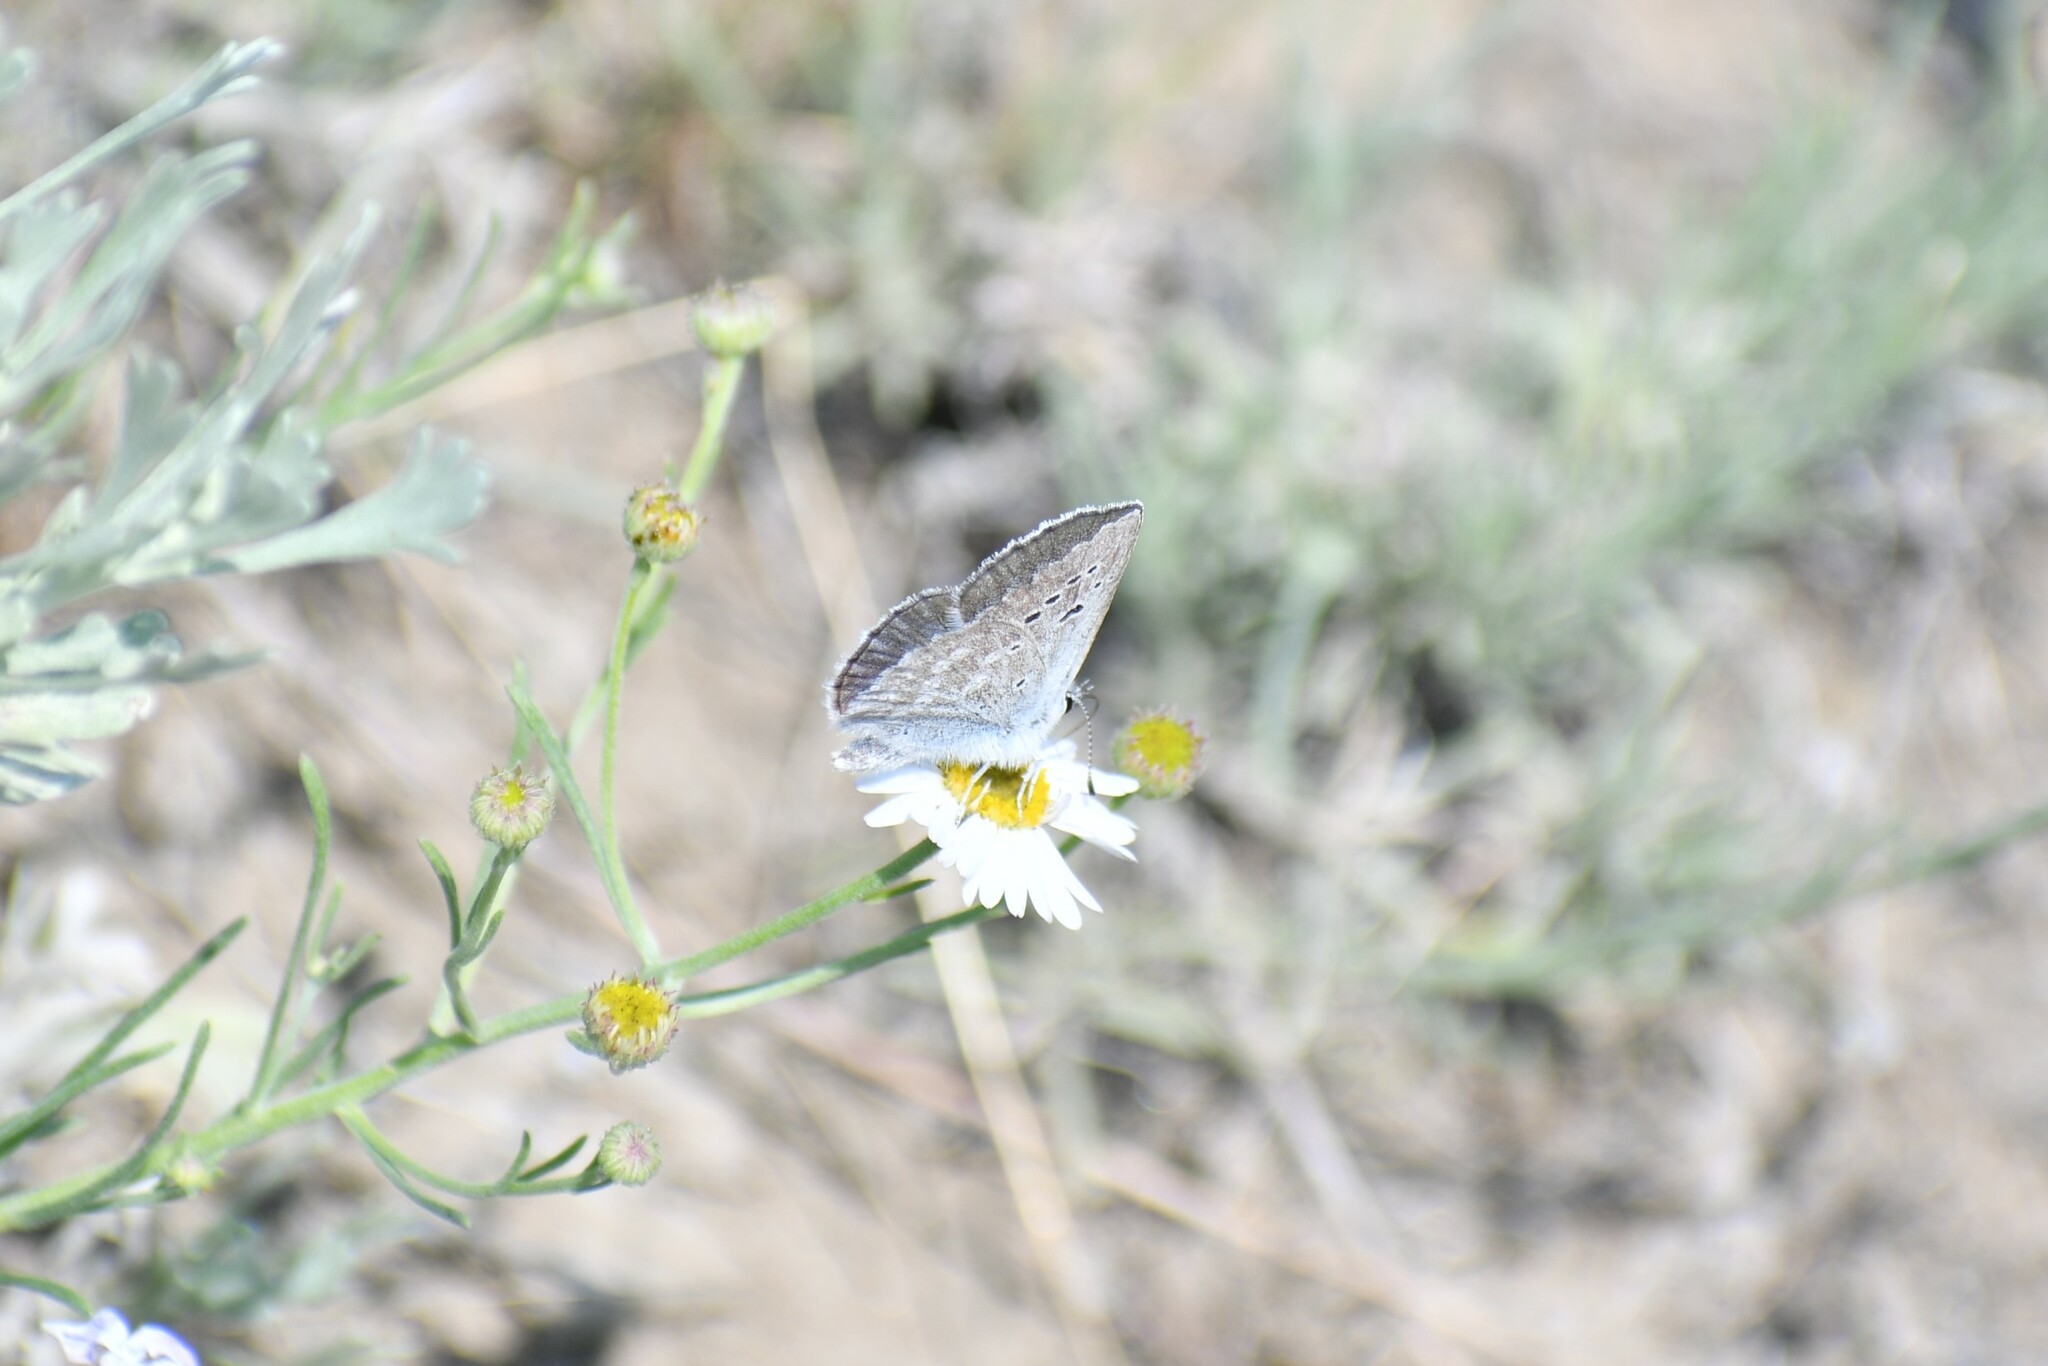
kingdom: Animalia
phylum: Arthropoda
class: Insecta
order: Lepidoptera
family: Lycaenidae
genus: Icaricia
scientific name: Icaricia icarioides
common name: Boisduval's blue
